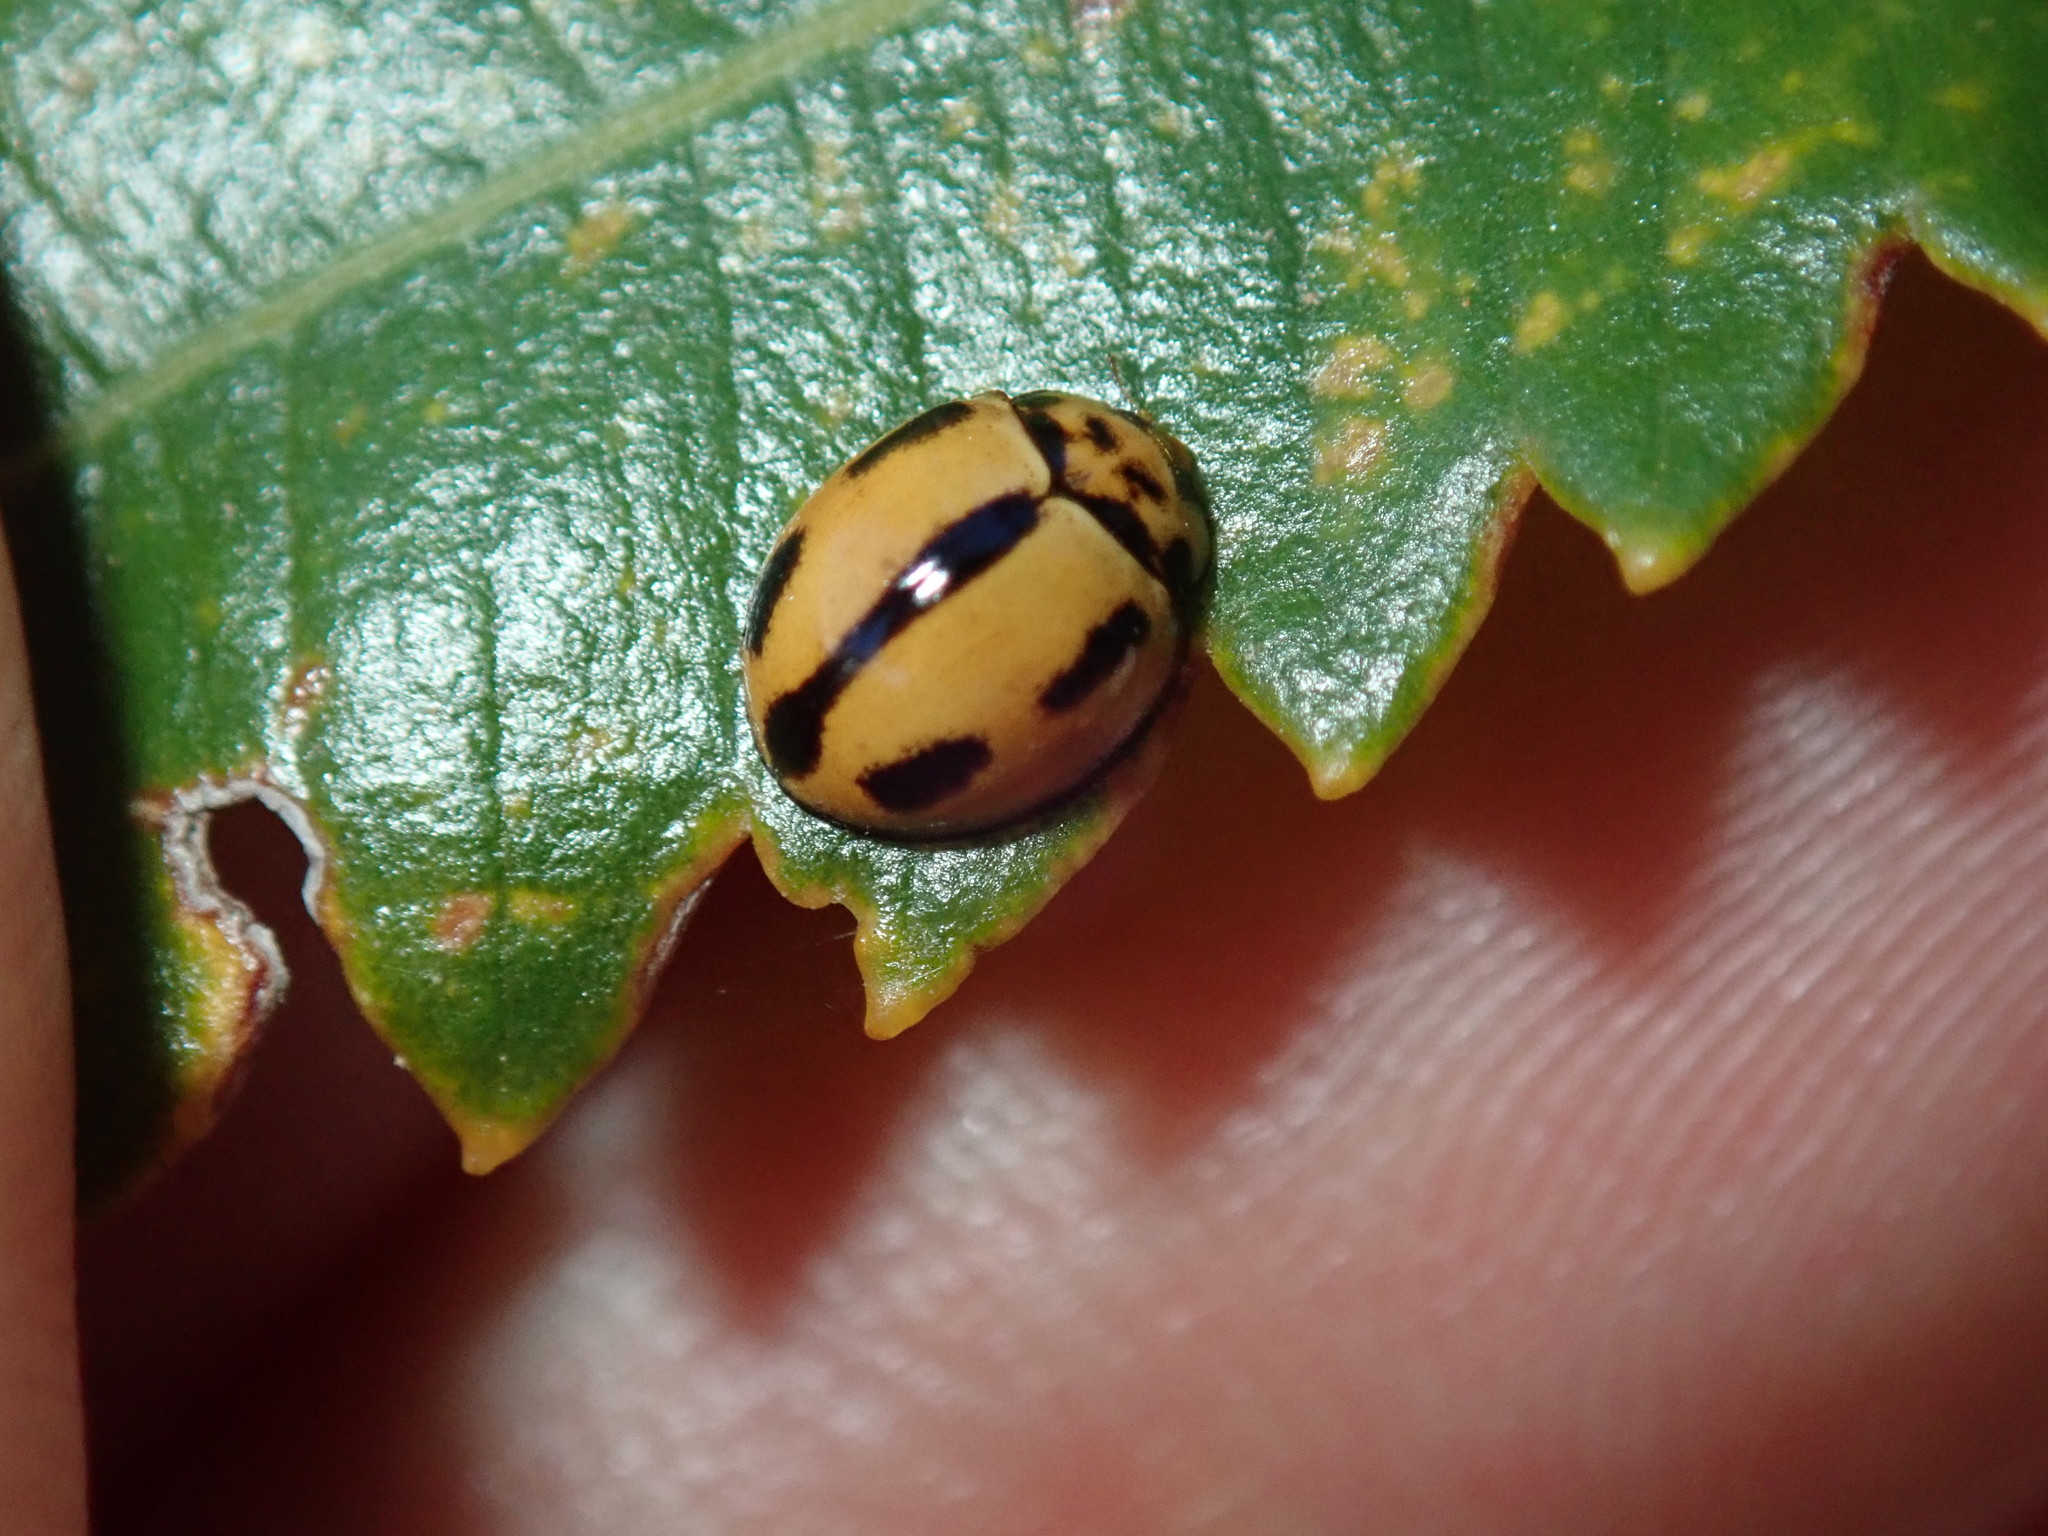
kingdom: Animalia
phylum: Arthropoda
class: Insecta
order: Coleoptera
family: Coccinellidae
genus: Coelophora
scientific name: Coelophora inaequalis
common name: Common australian lady beetle
